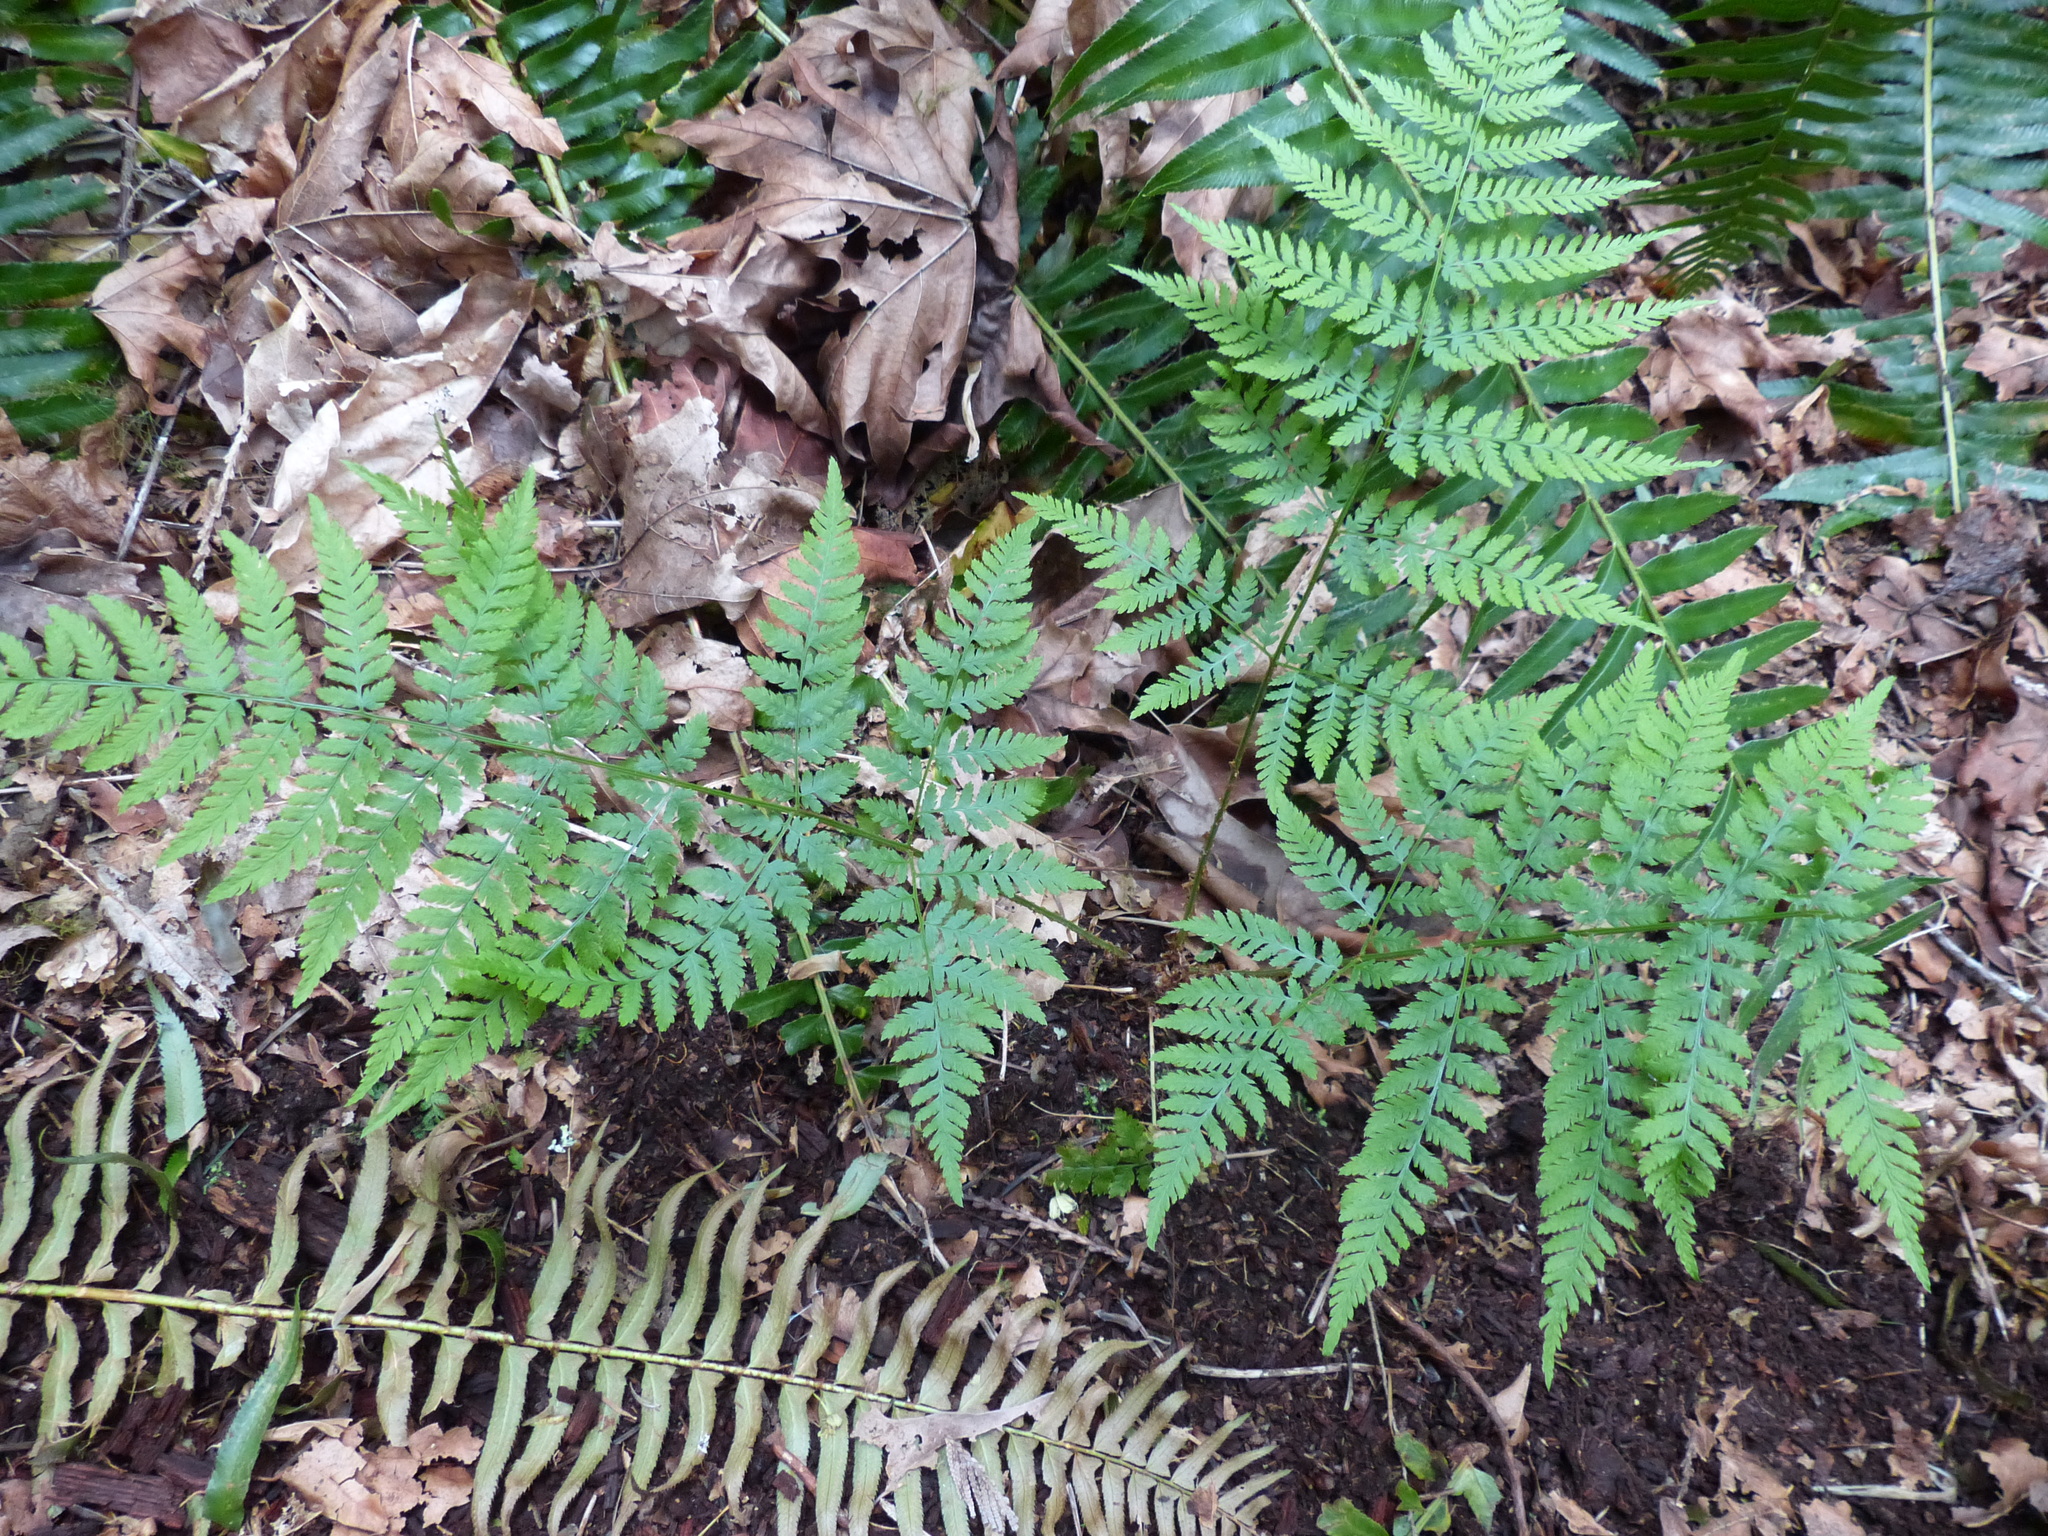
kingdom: Plantae
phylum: Tracheophyta
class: Polypodiopsida
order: Polypodiales
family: Dryopteridaceae
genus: Dryopteris
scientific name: Dryopteris expansa
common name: Northern buckler fern
